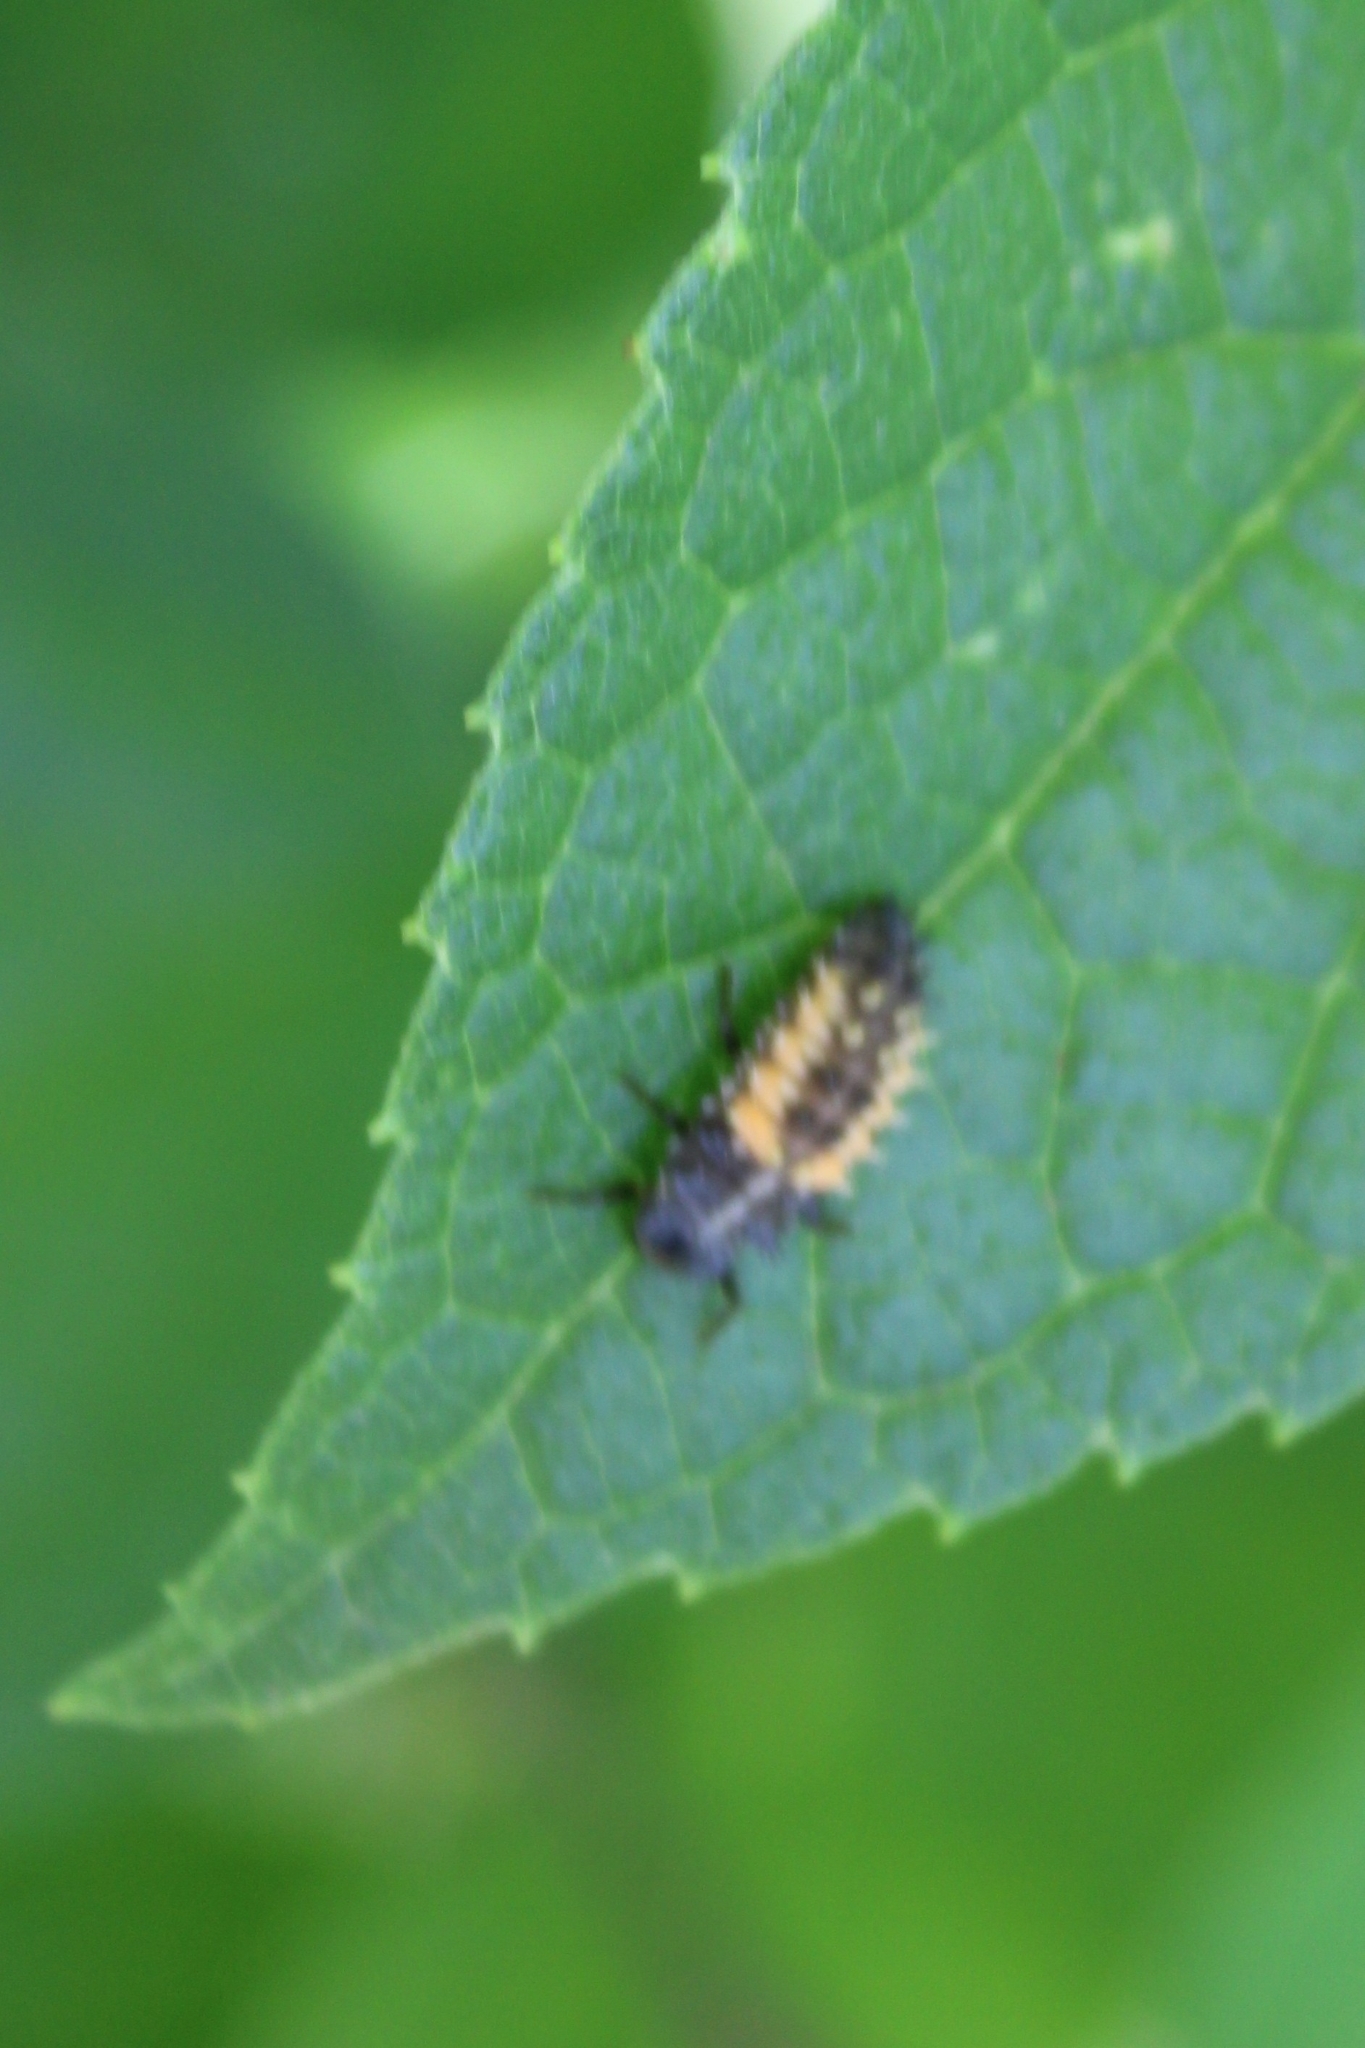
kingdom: Animalia
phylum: Arthropoda
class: Insecta
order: Coleoptera
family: Coccinellidae
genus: Harmonia
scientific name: Harmonia axyridis
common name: Harlequin ladybird
